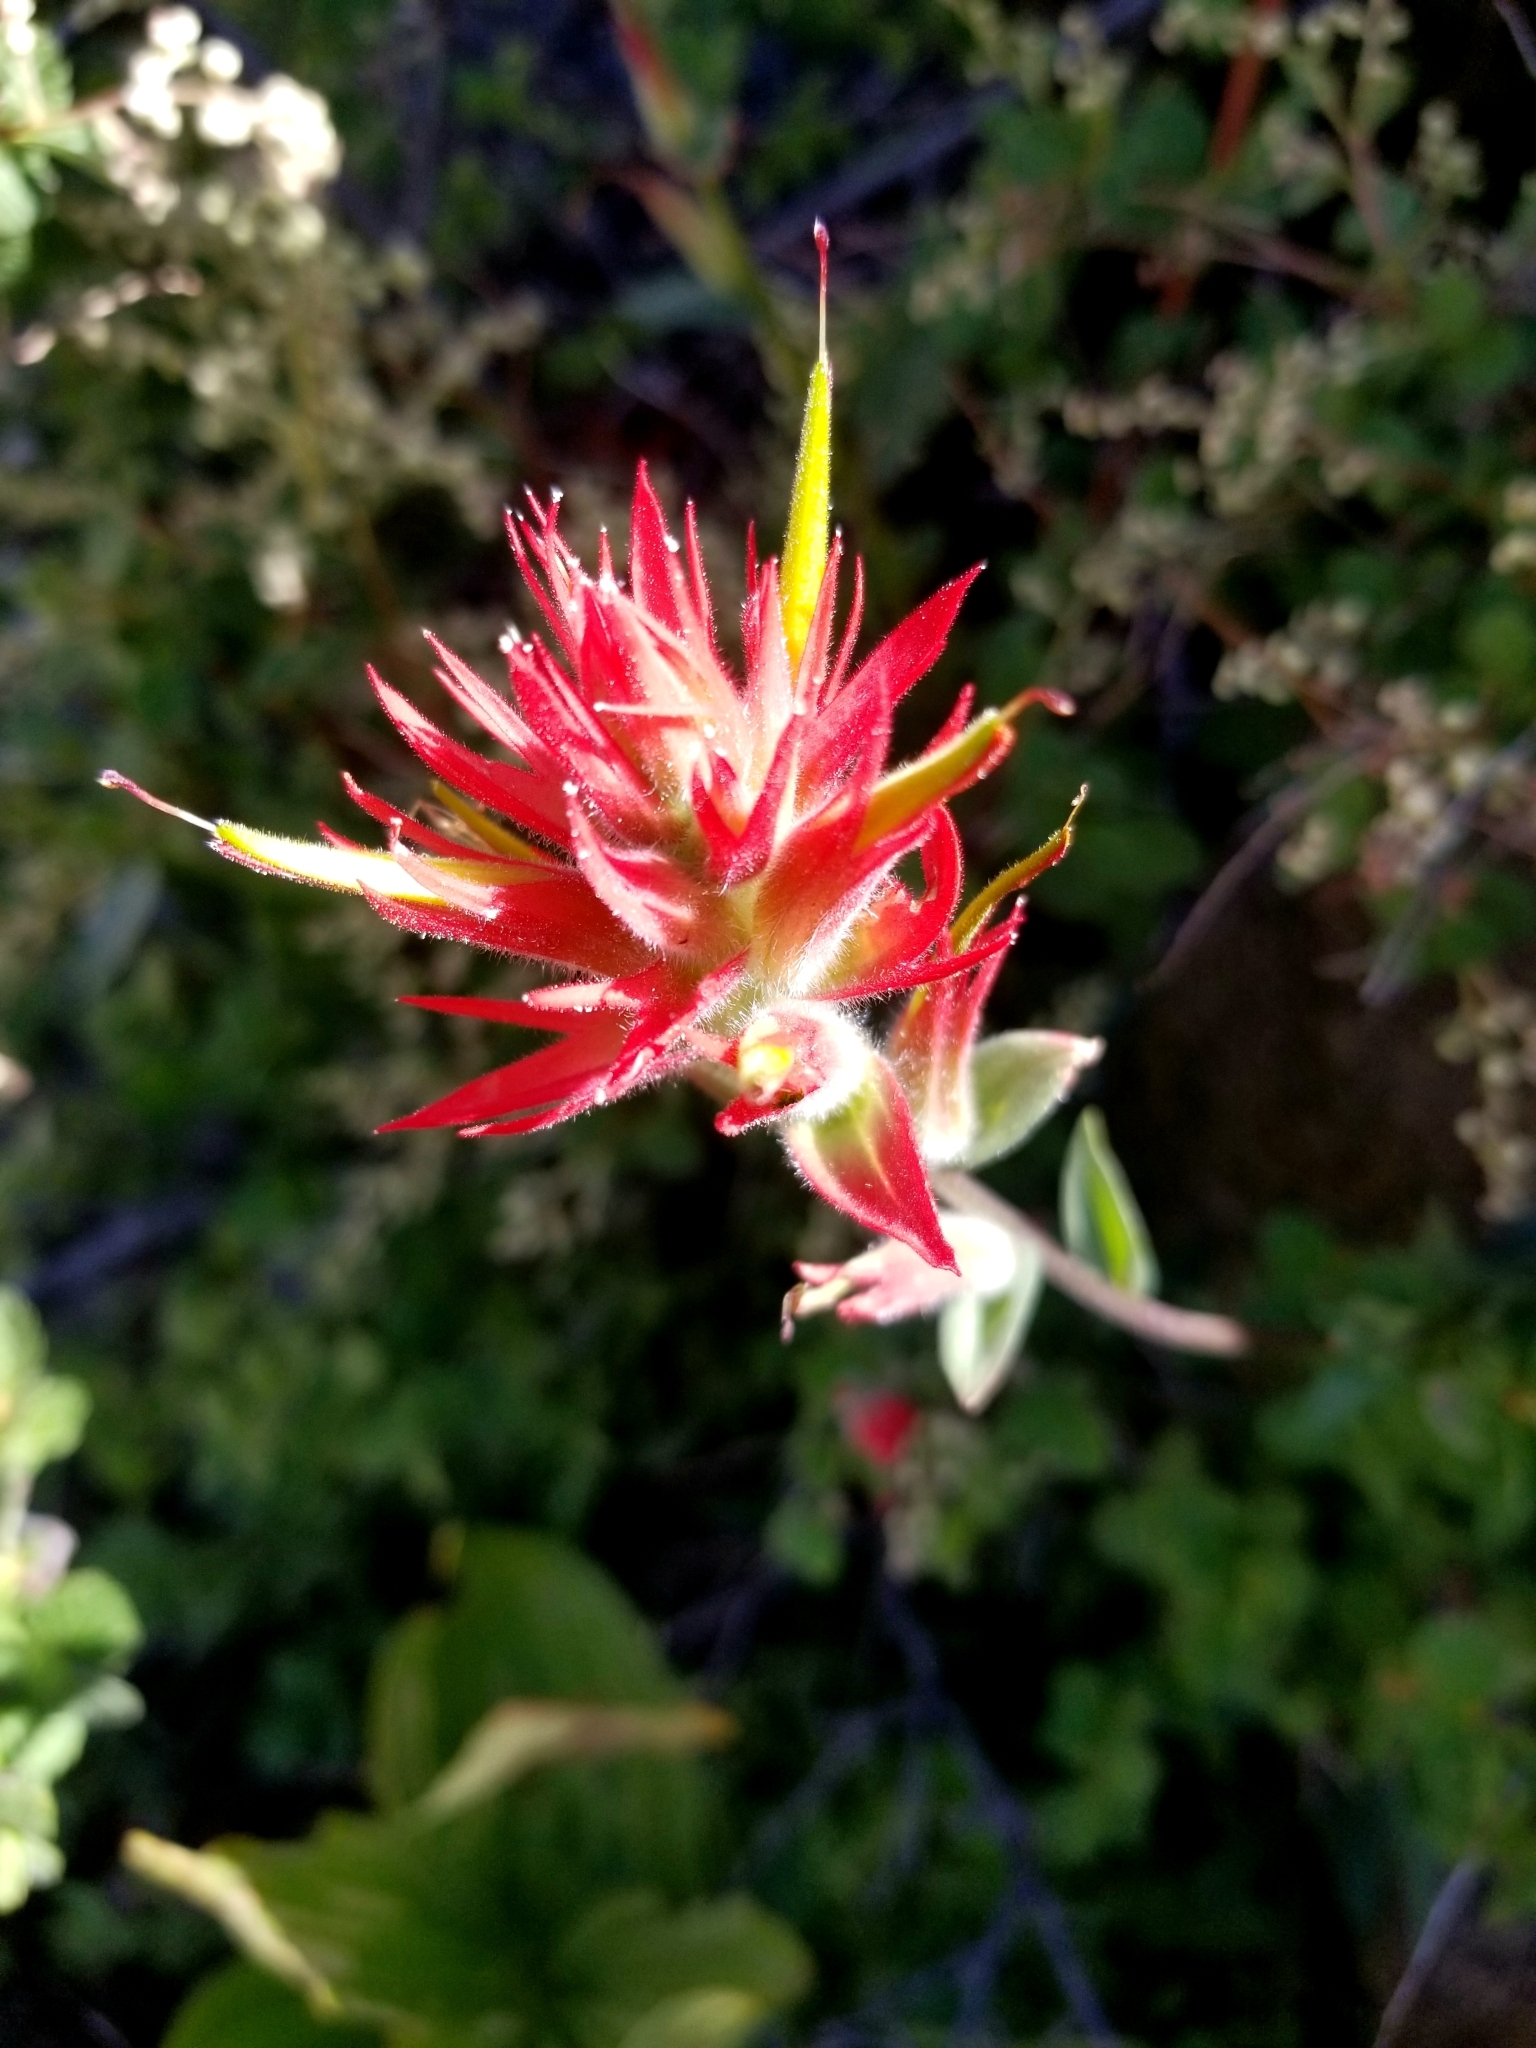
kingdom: Plantae
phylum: Tracheophyta
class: Magnoliopsida
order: Lamiales
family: Orobanchaceae
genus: Castilleja
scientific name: Castilleja miniata
